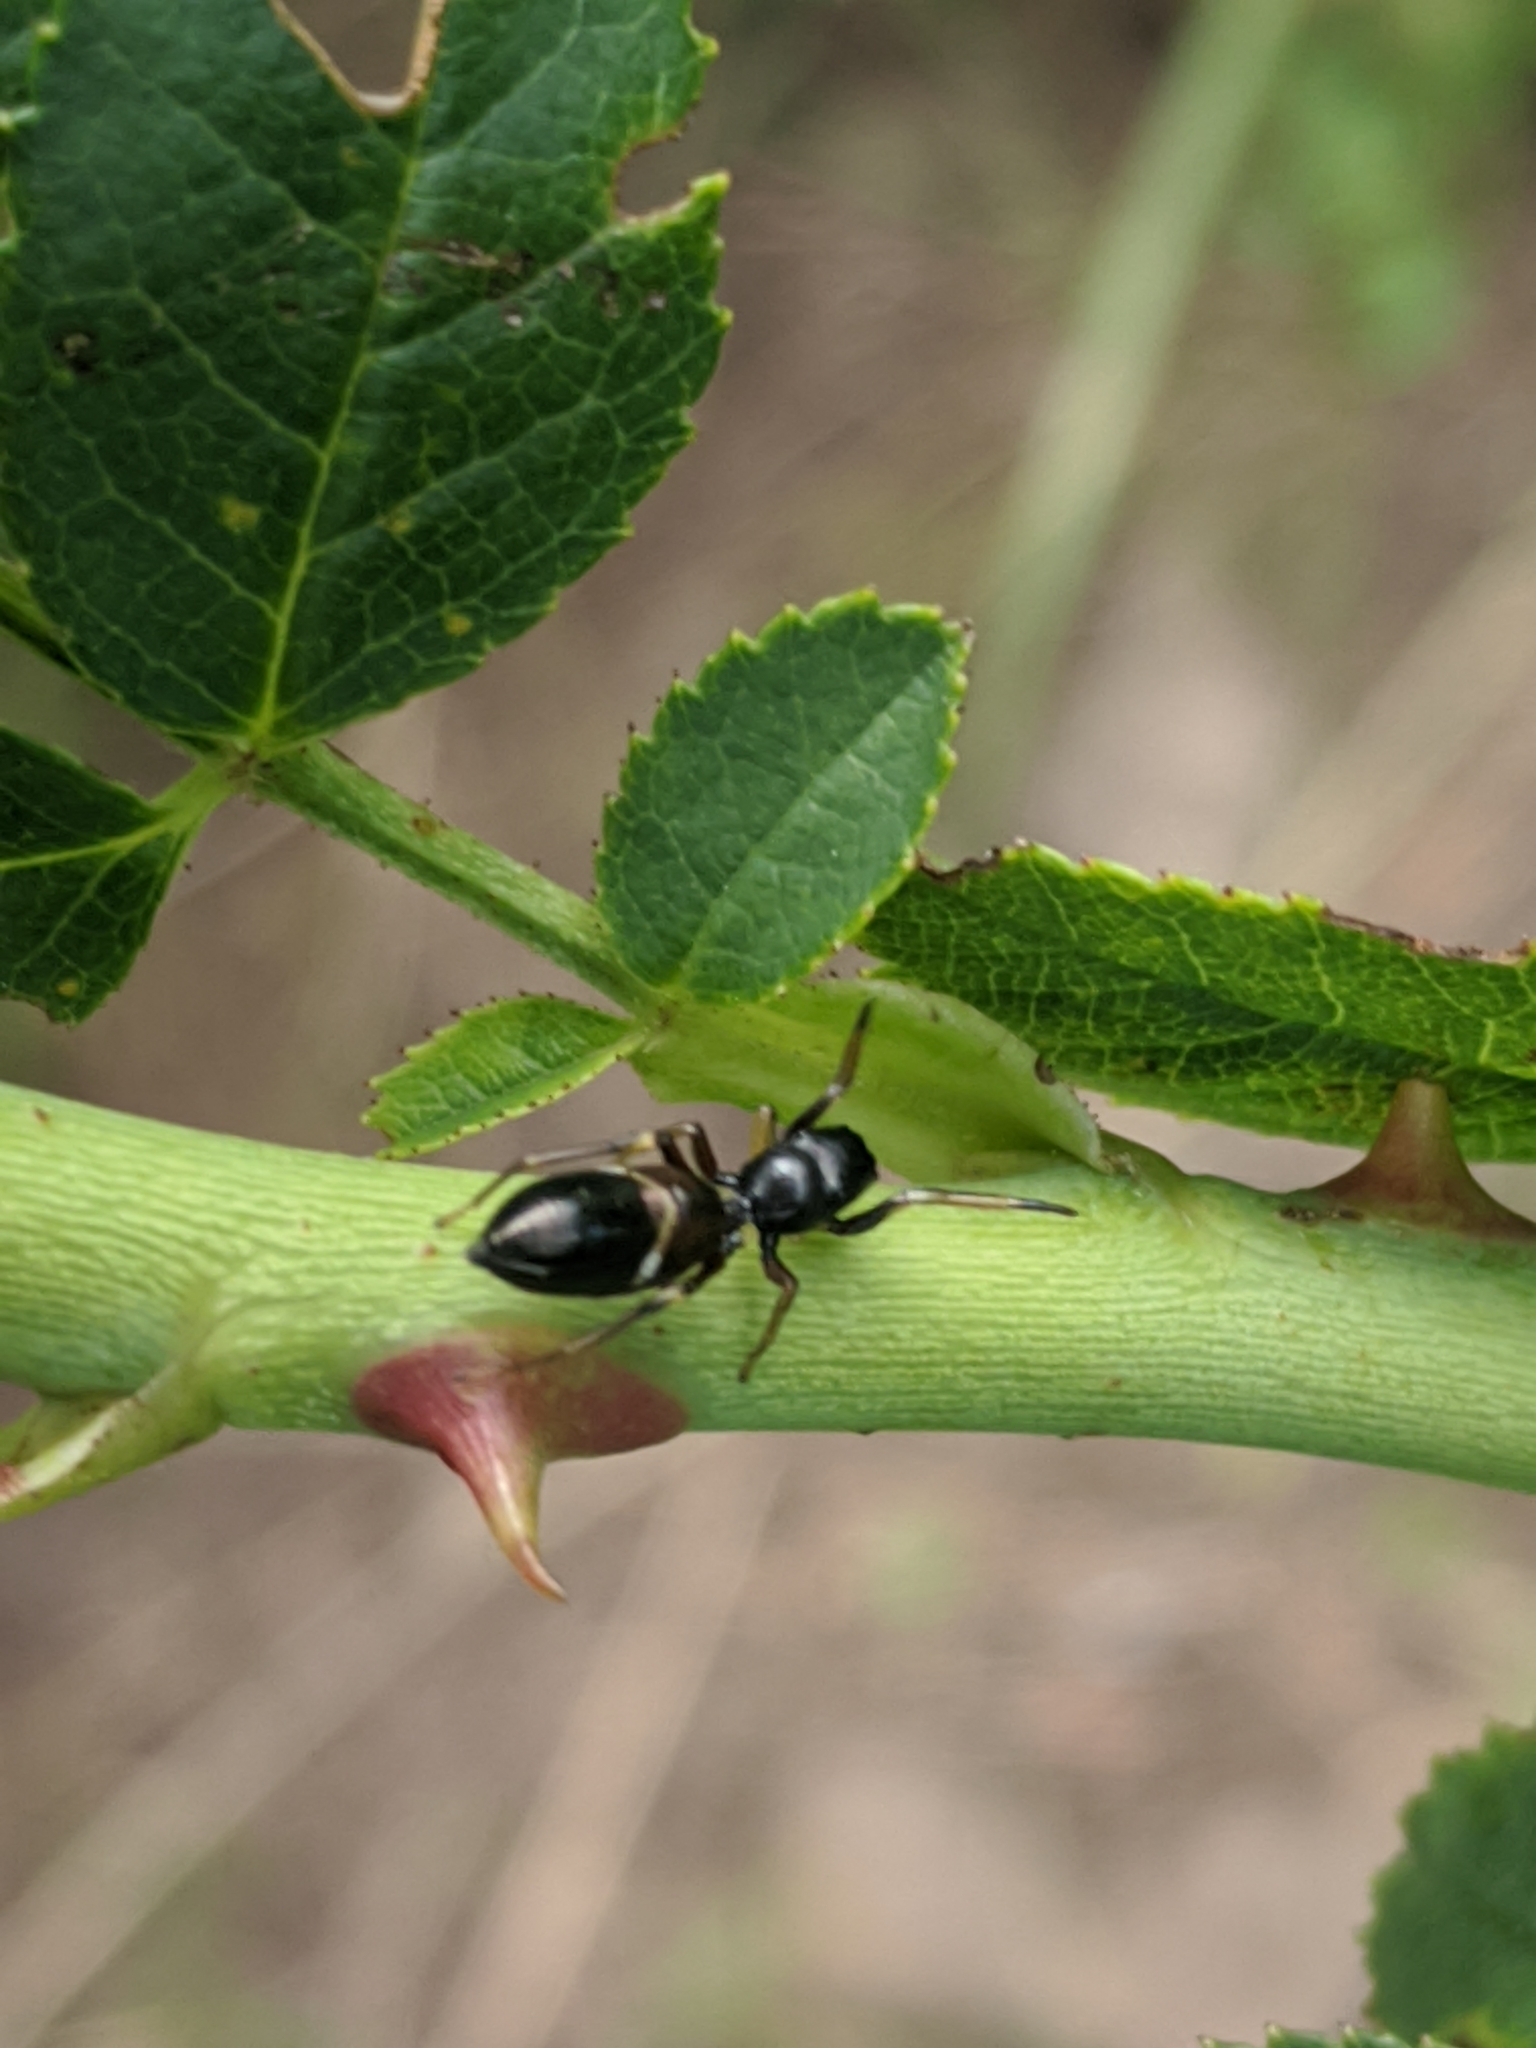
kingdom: Animalia
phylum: Arthropoda
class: Arachnida
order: Araneae
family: Salticidae
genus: Leptorchestes
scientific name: Leptorchestes berolinensis
